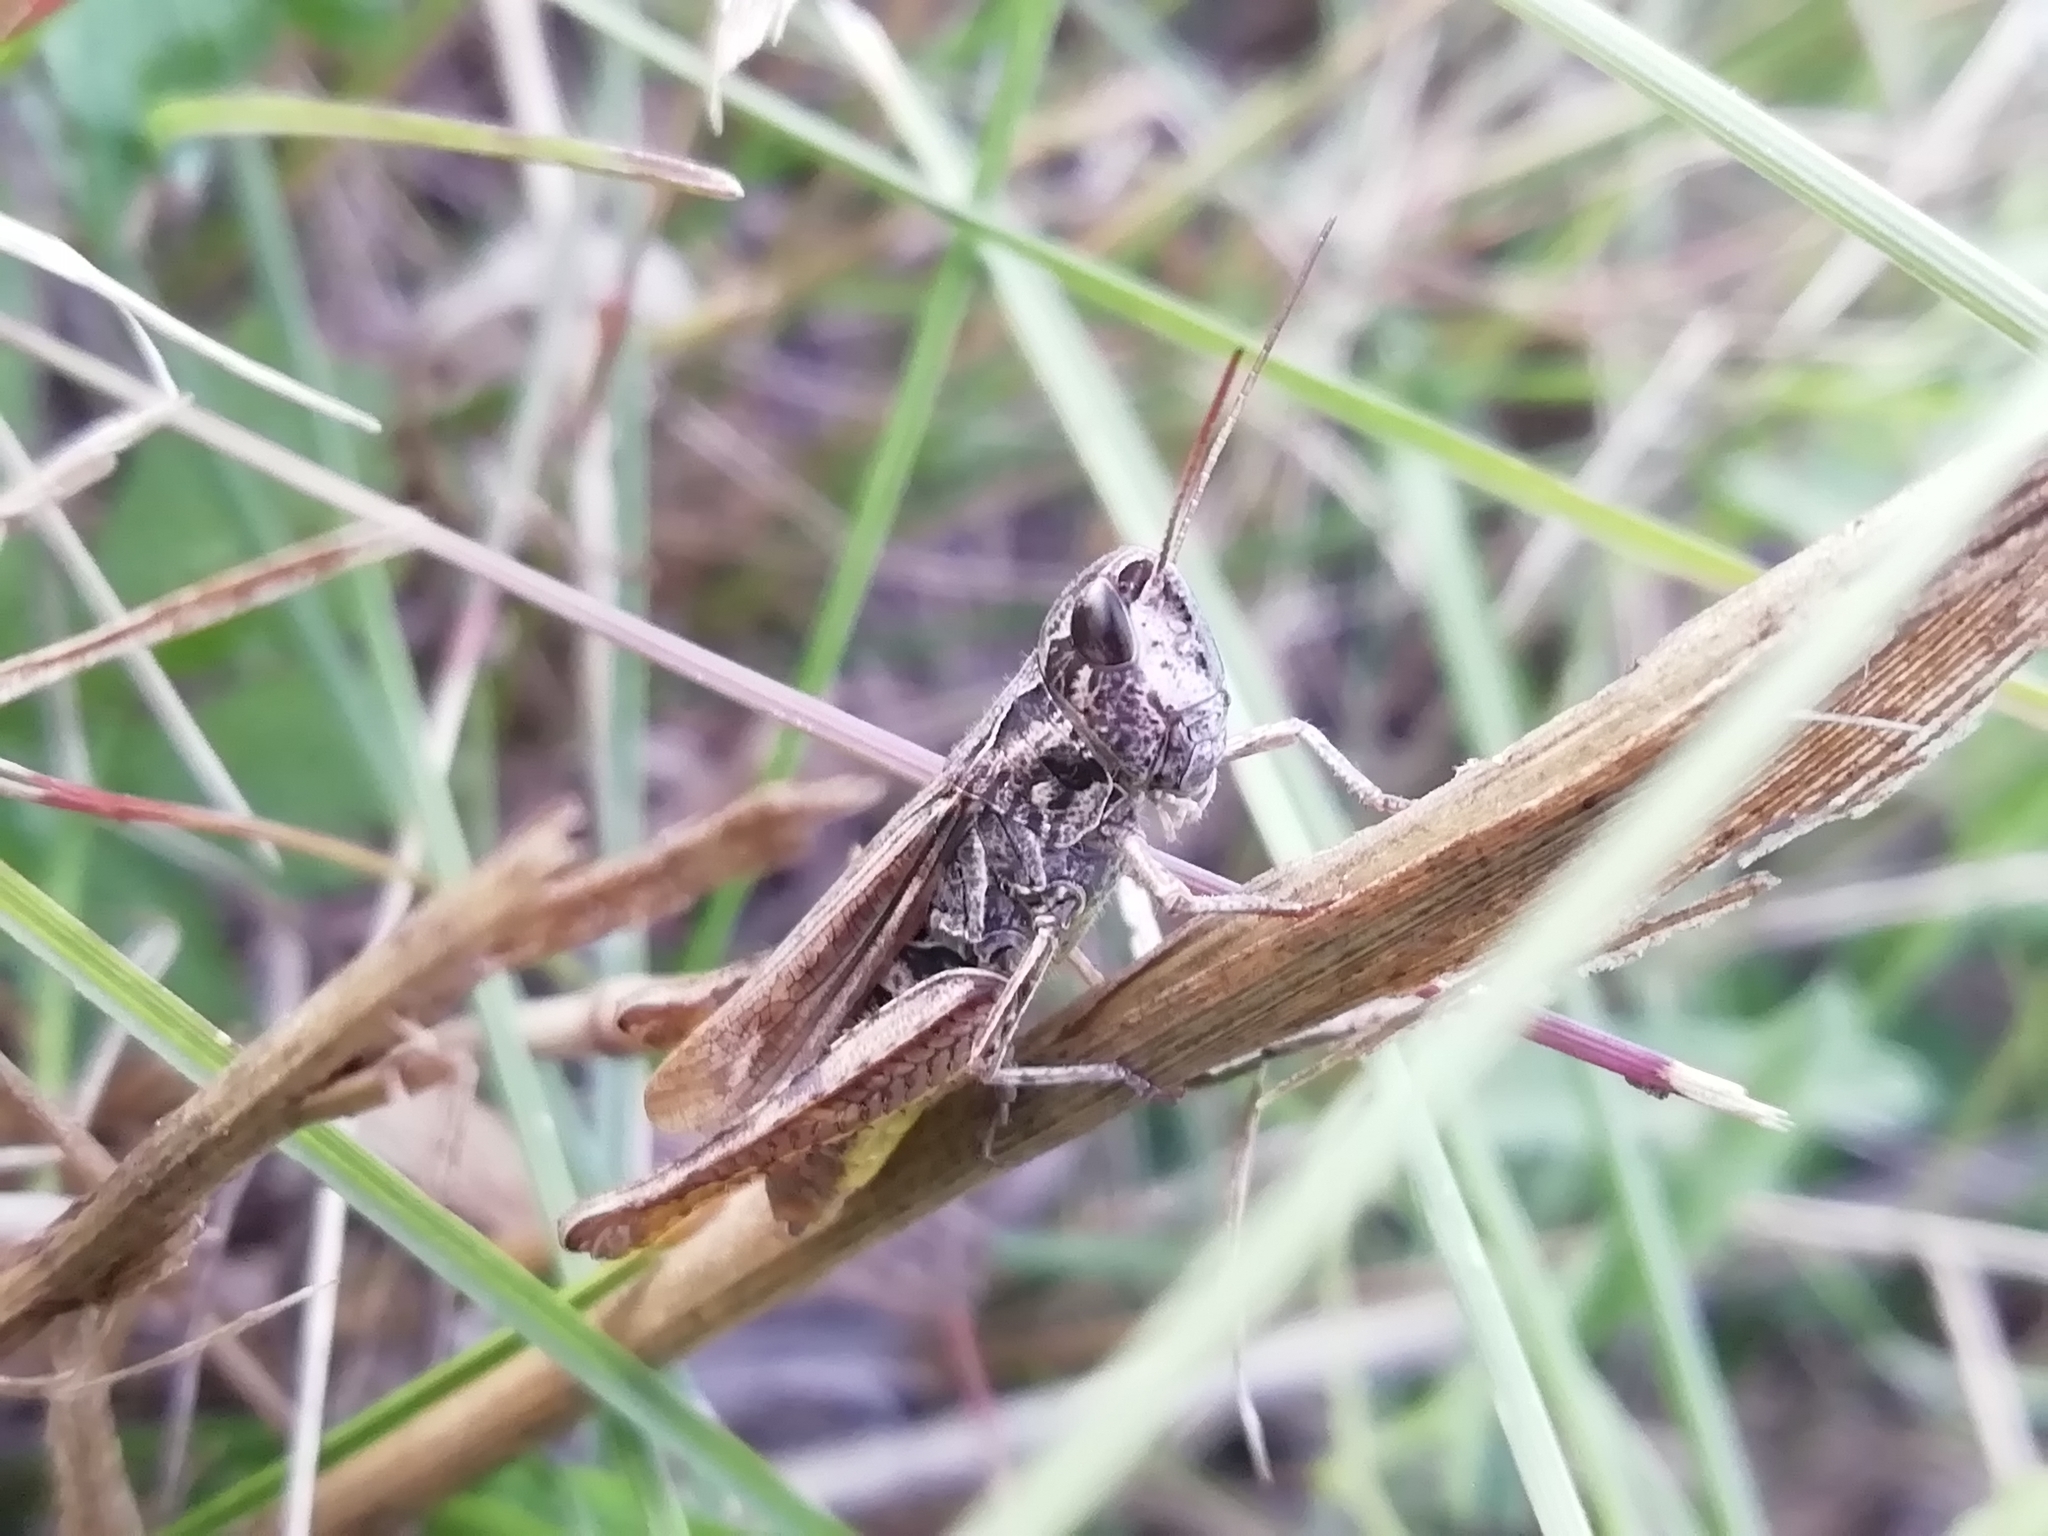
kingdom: Animalia
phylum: Arthropoda
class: Insecta
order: Orthoptera
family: Acrididae
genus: Chorthippus
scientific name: Chorthippus apricarius
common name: Upland field grasshopper
